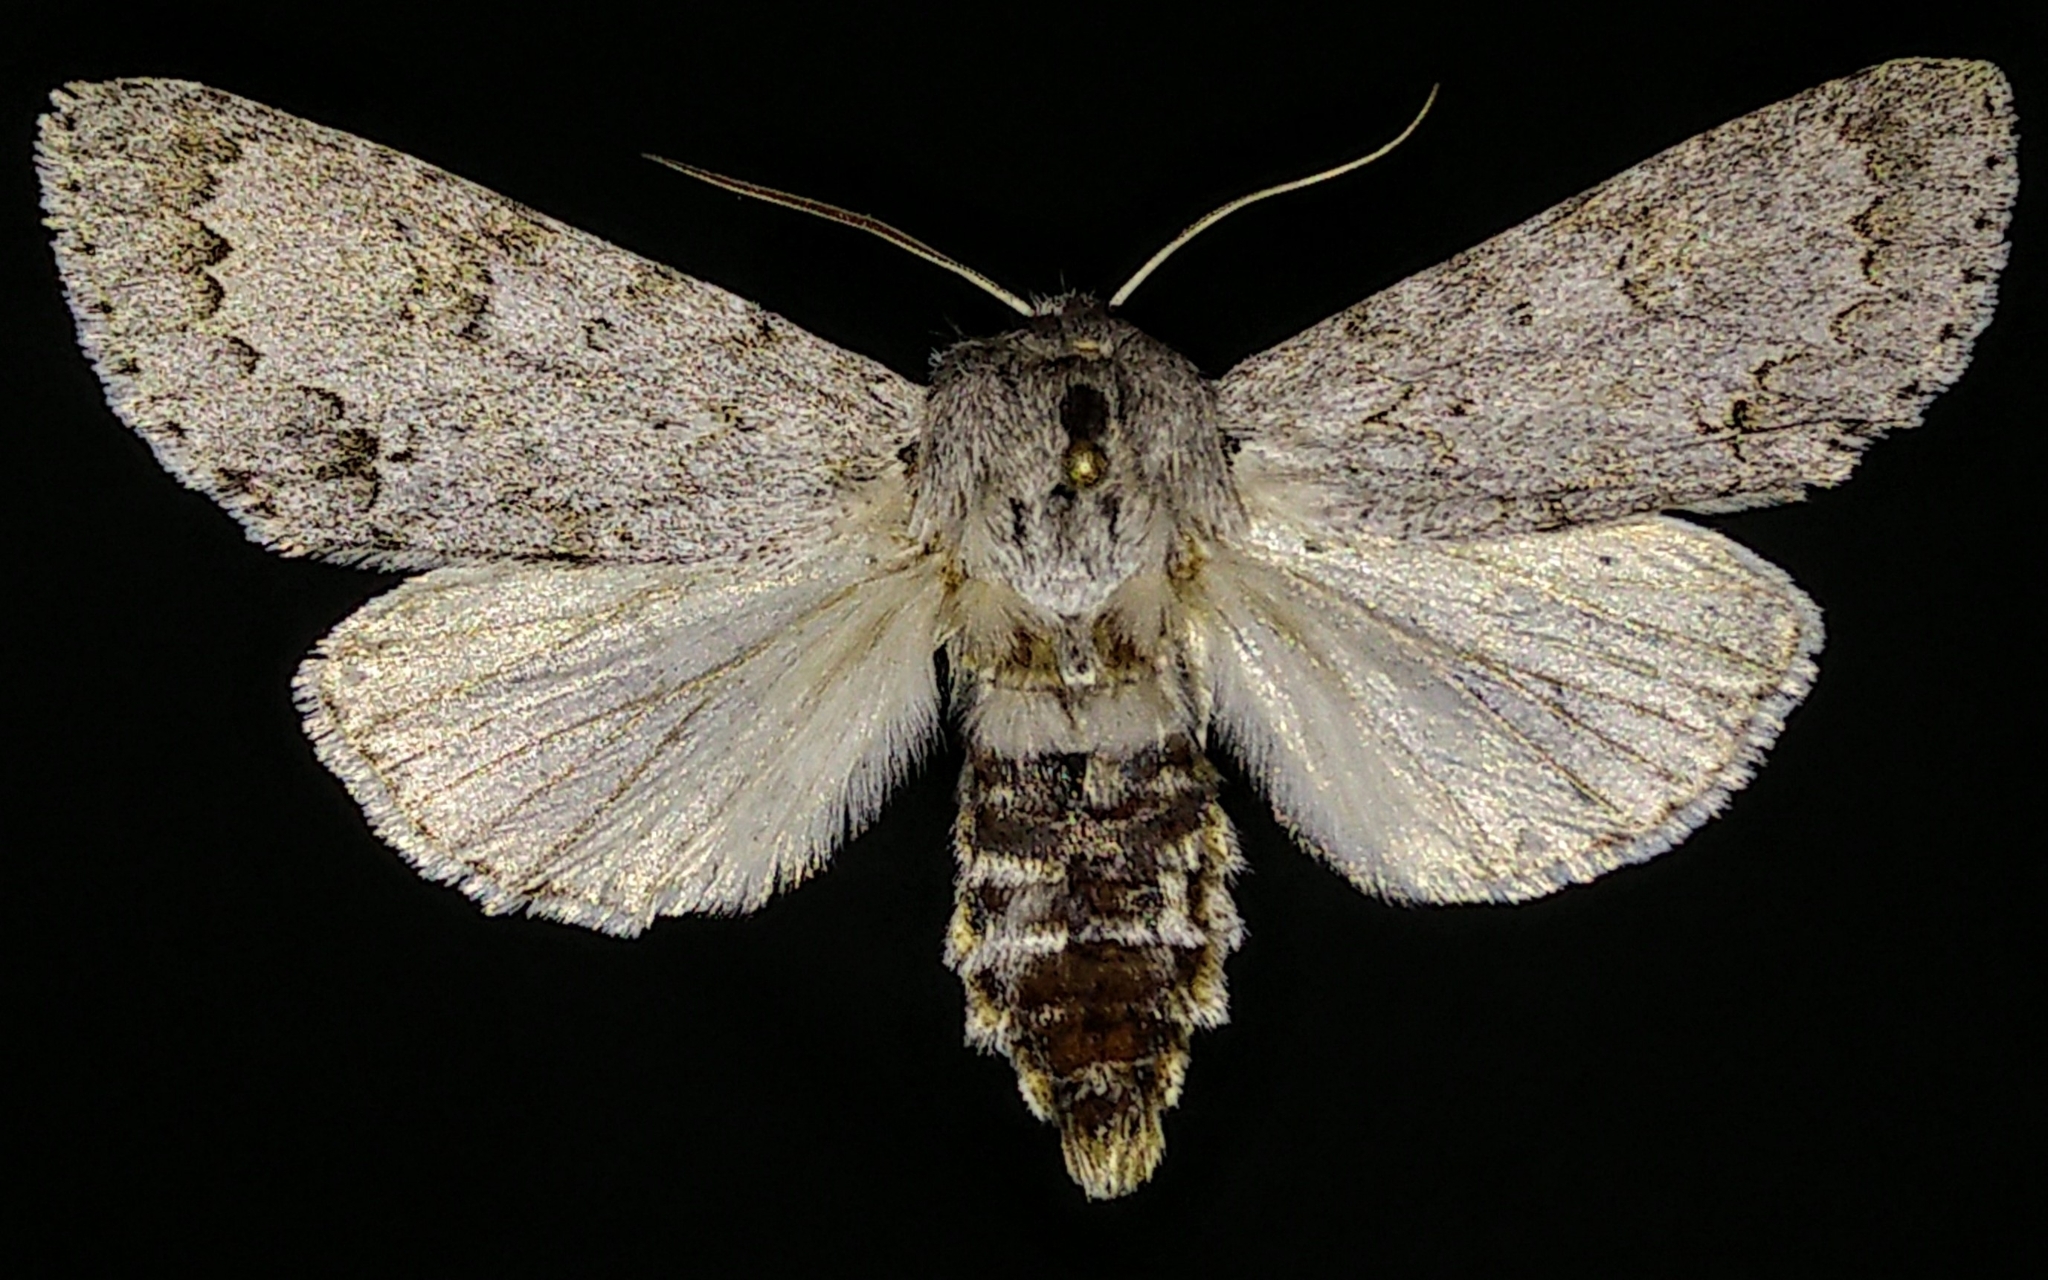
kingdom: Animalia
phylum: Arthropoda
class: Insecta
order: Lepidoptera
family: Noctuidae
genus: Acronicta
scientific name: Acronicta insita
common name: Large gray dagger
